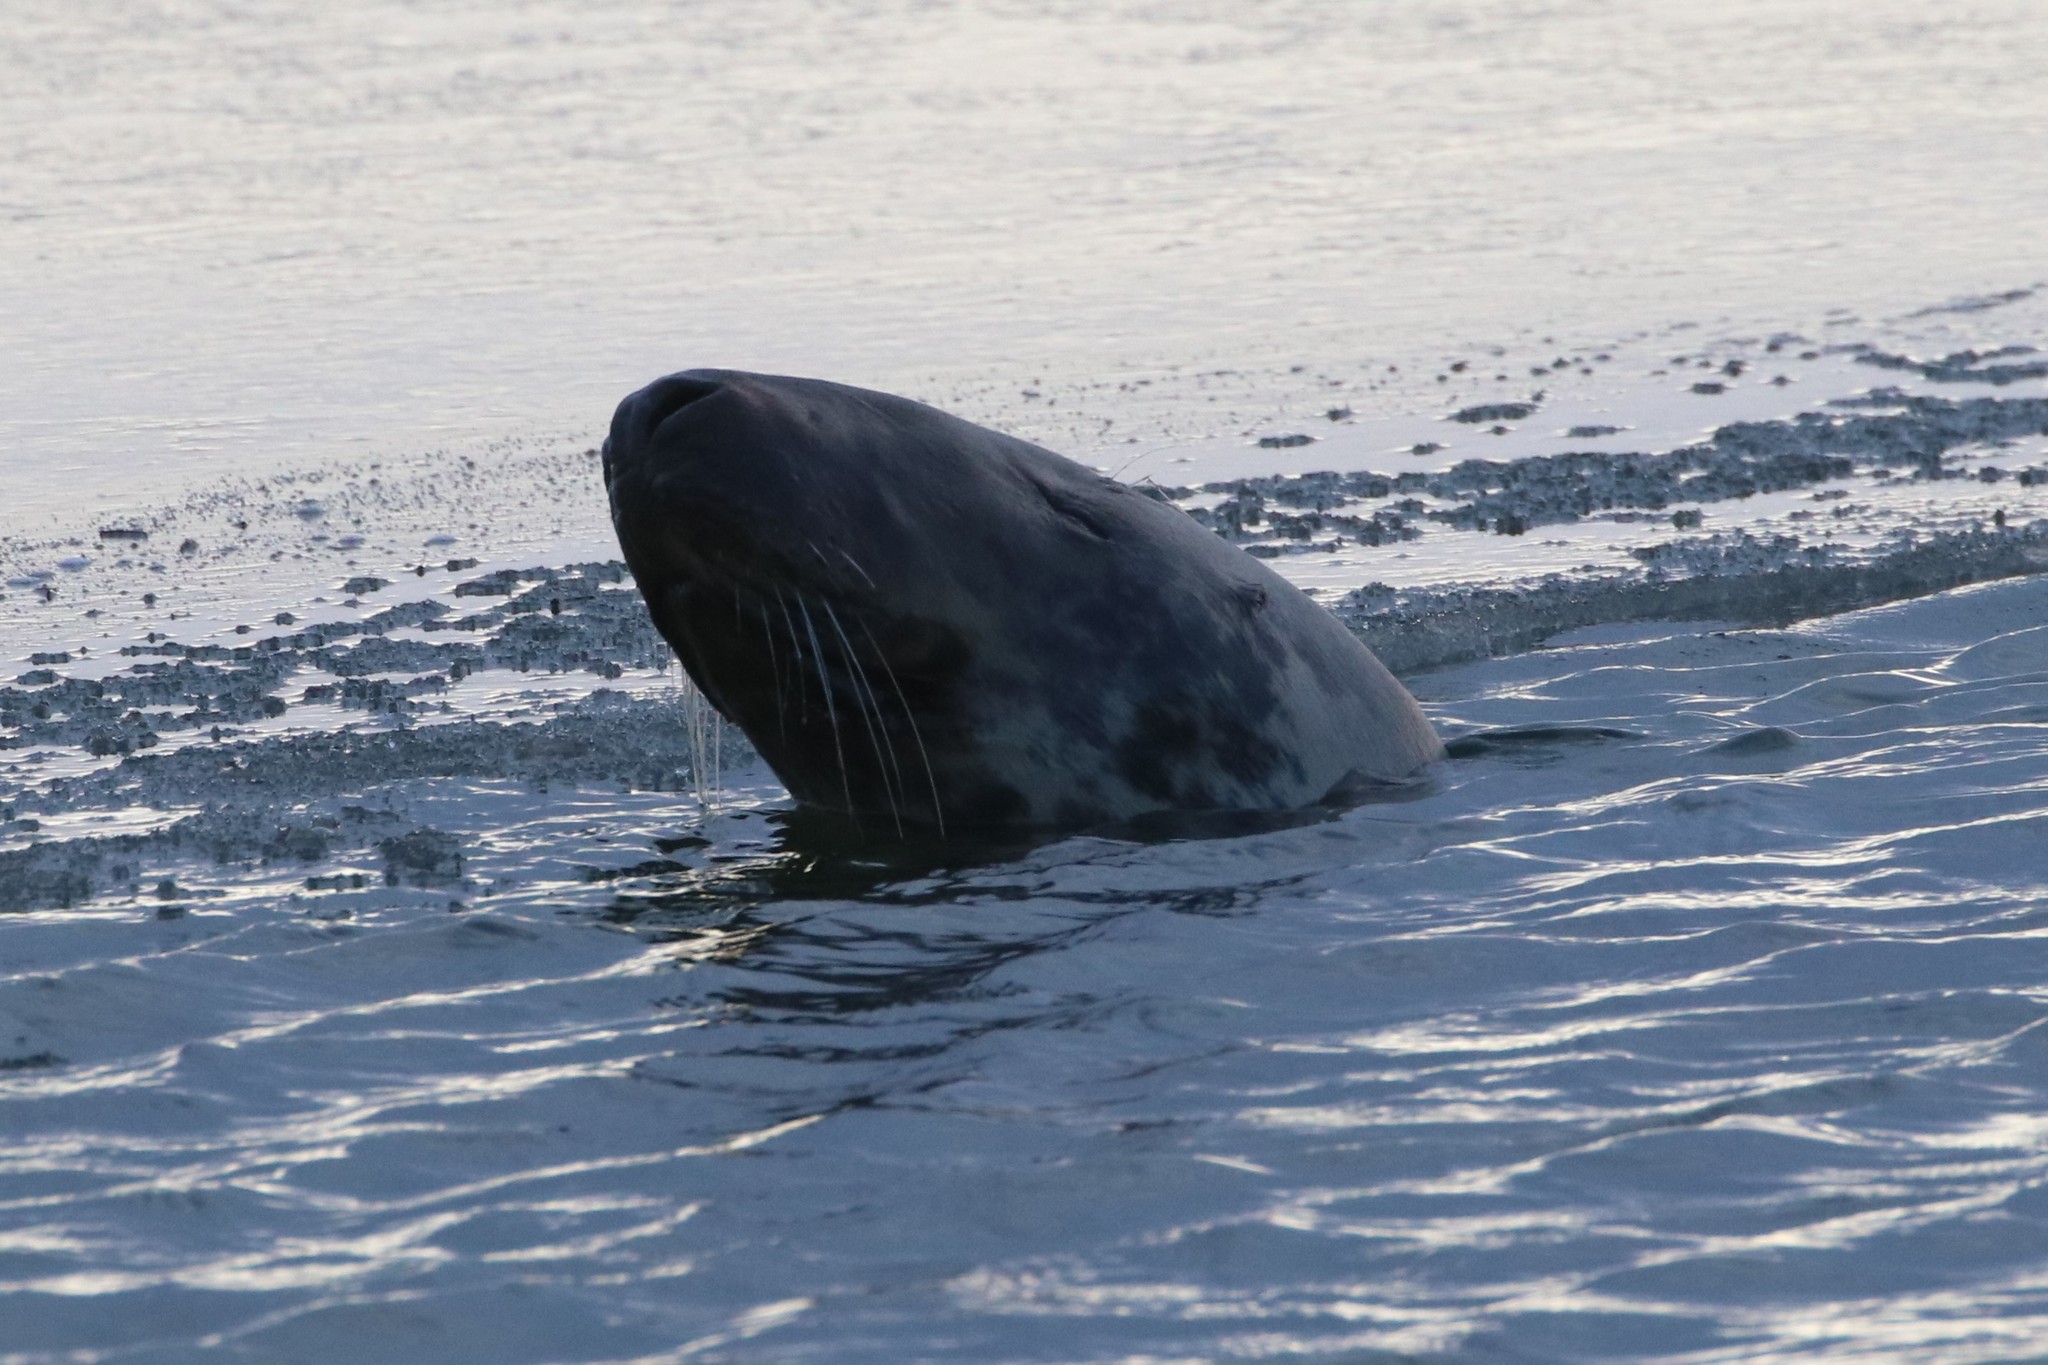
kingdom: Animalia
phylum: Chordata
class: Mammalia
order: Carnivora
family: Phocidae
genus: Halichoerus
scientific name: Halichoerus grypus
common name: Grey seal
